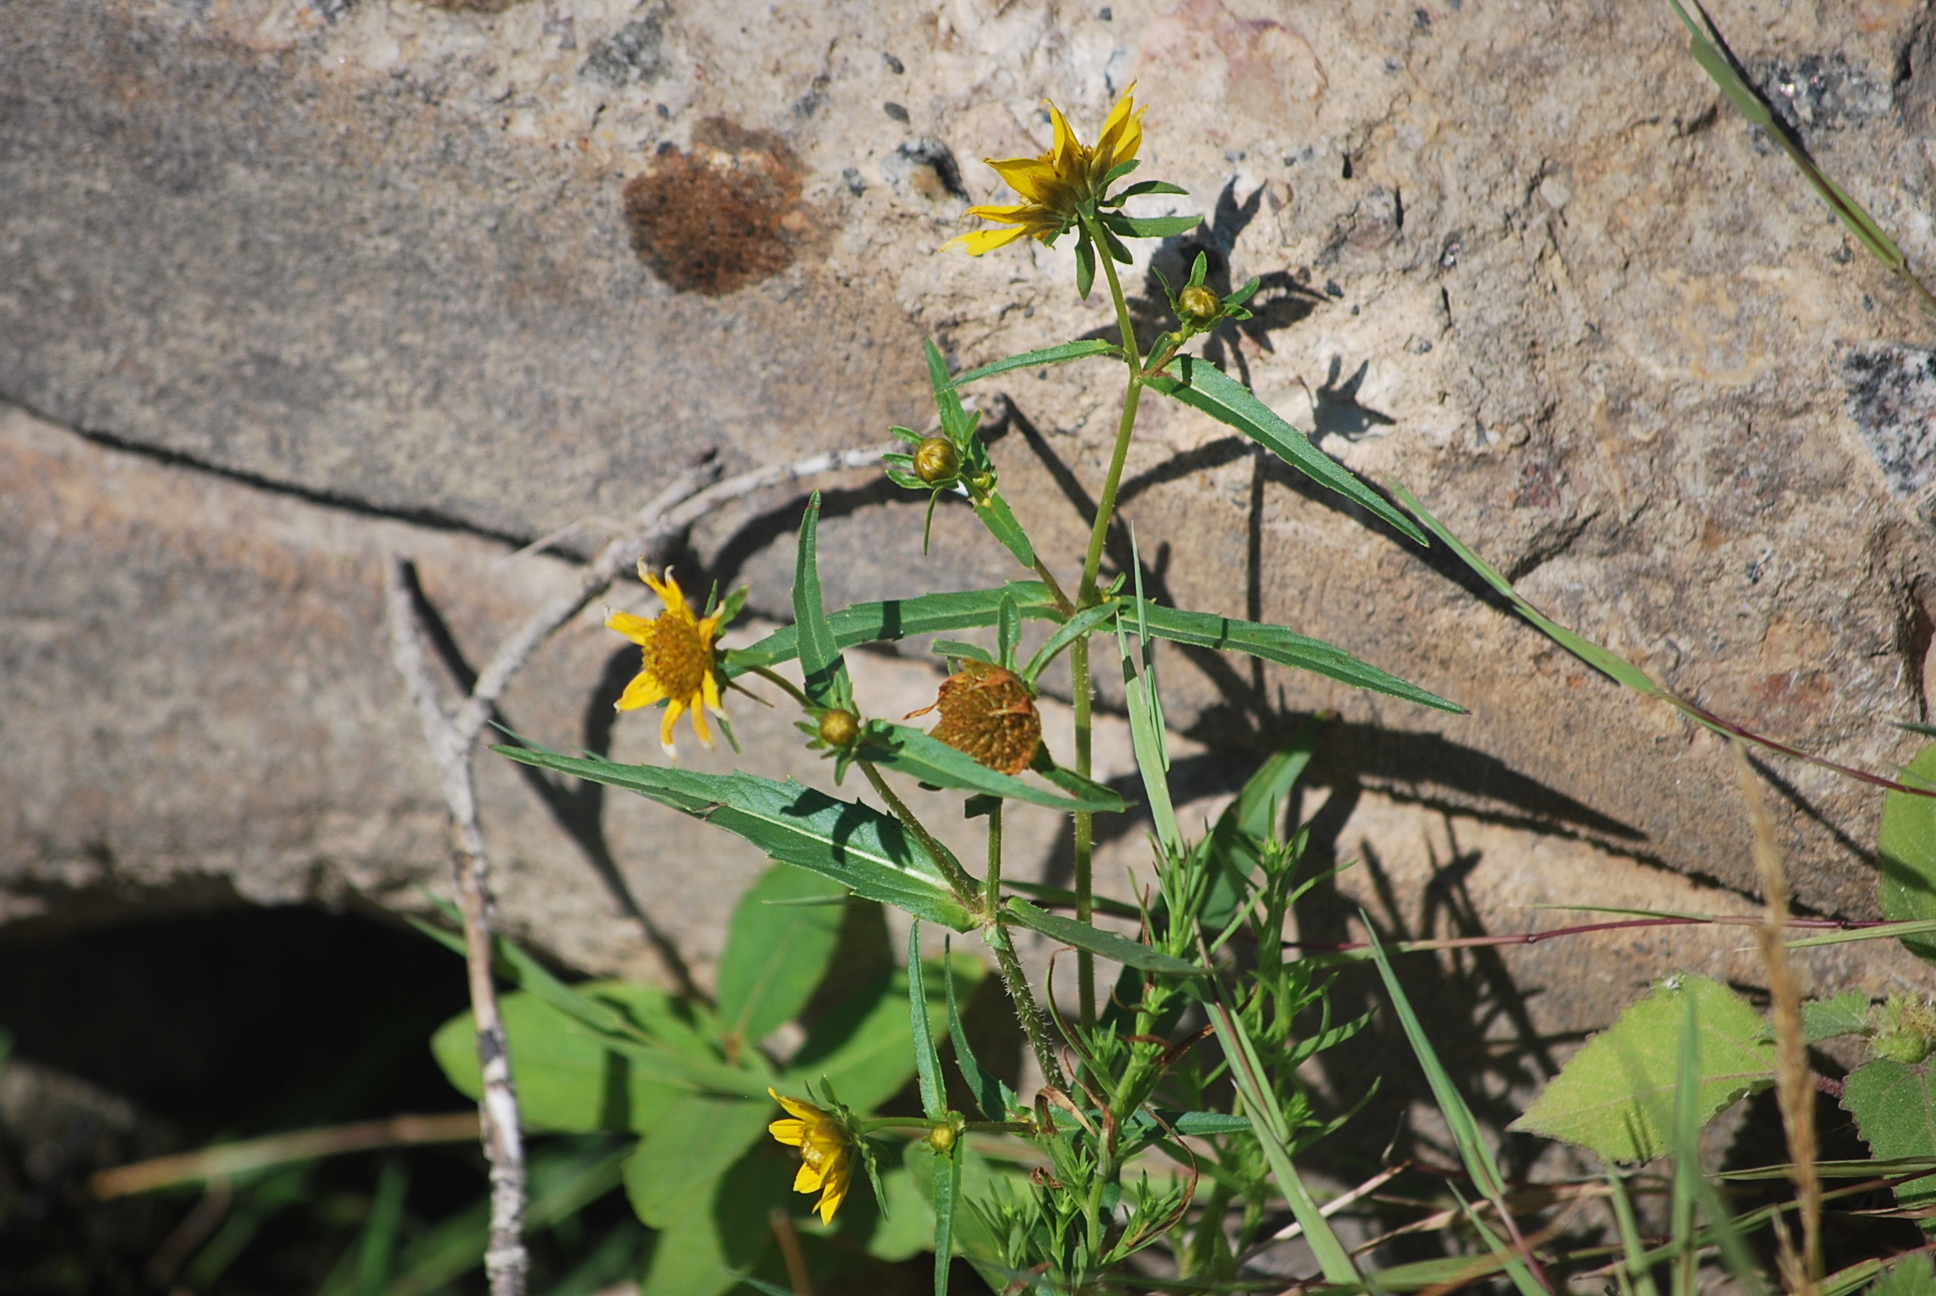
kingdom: Plantae
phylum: Tracheophyta
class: Magnoliopsida
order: Asterales
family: Asteraceae
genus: Bidens
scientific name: Bidens cernua
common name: Nodding bur-marigold
